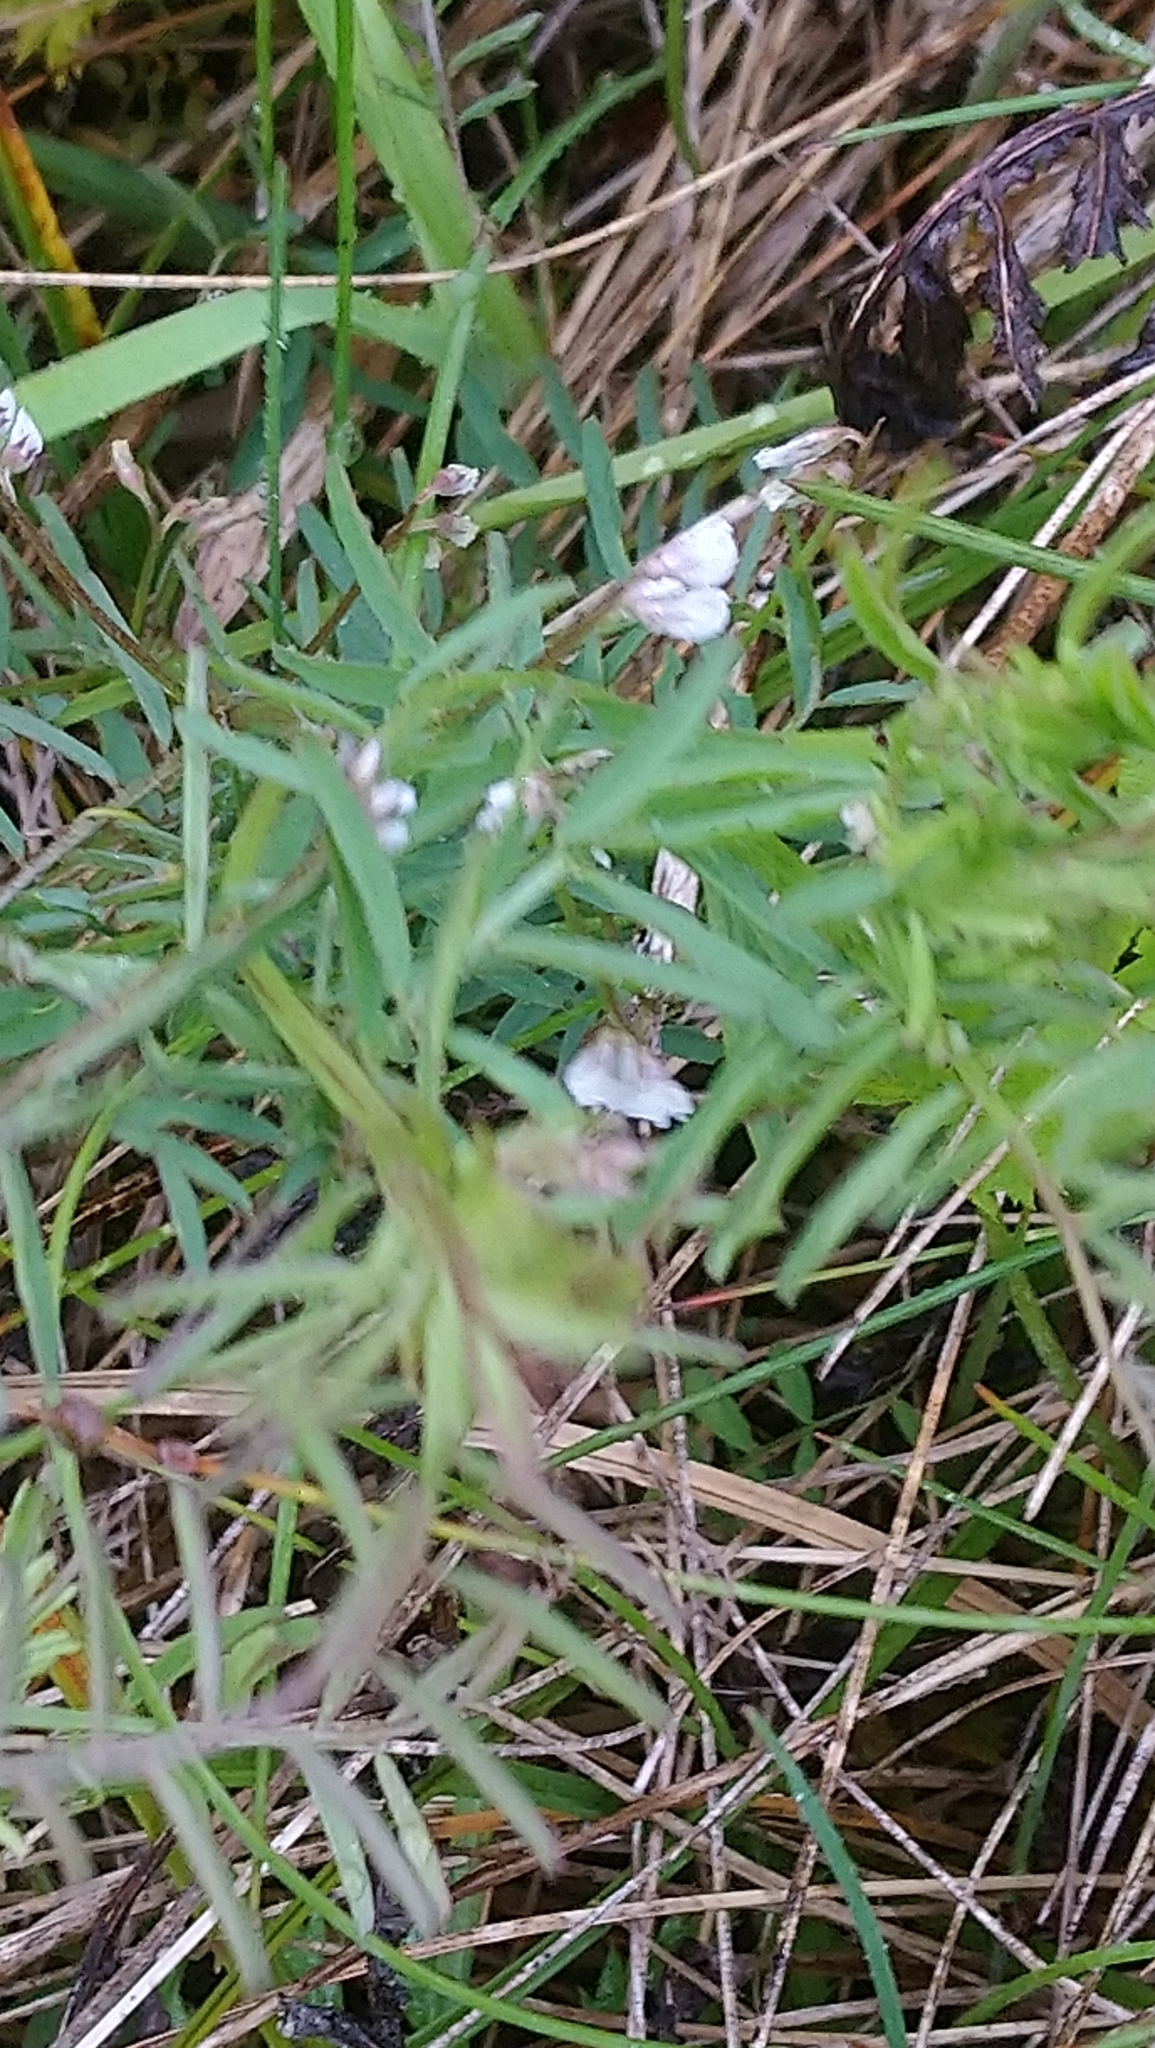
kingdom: Plantae
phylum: Tracheophyta
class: Magnoliopsida
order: Fabales
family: Fabaceae
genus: Vicia
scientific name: Vicia hirsuta
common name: Tiny vetch
